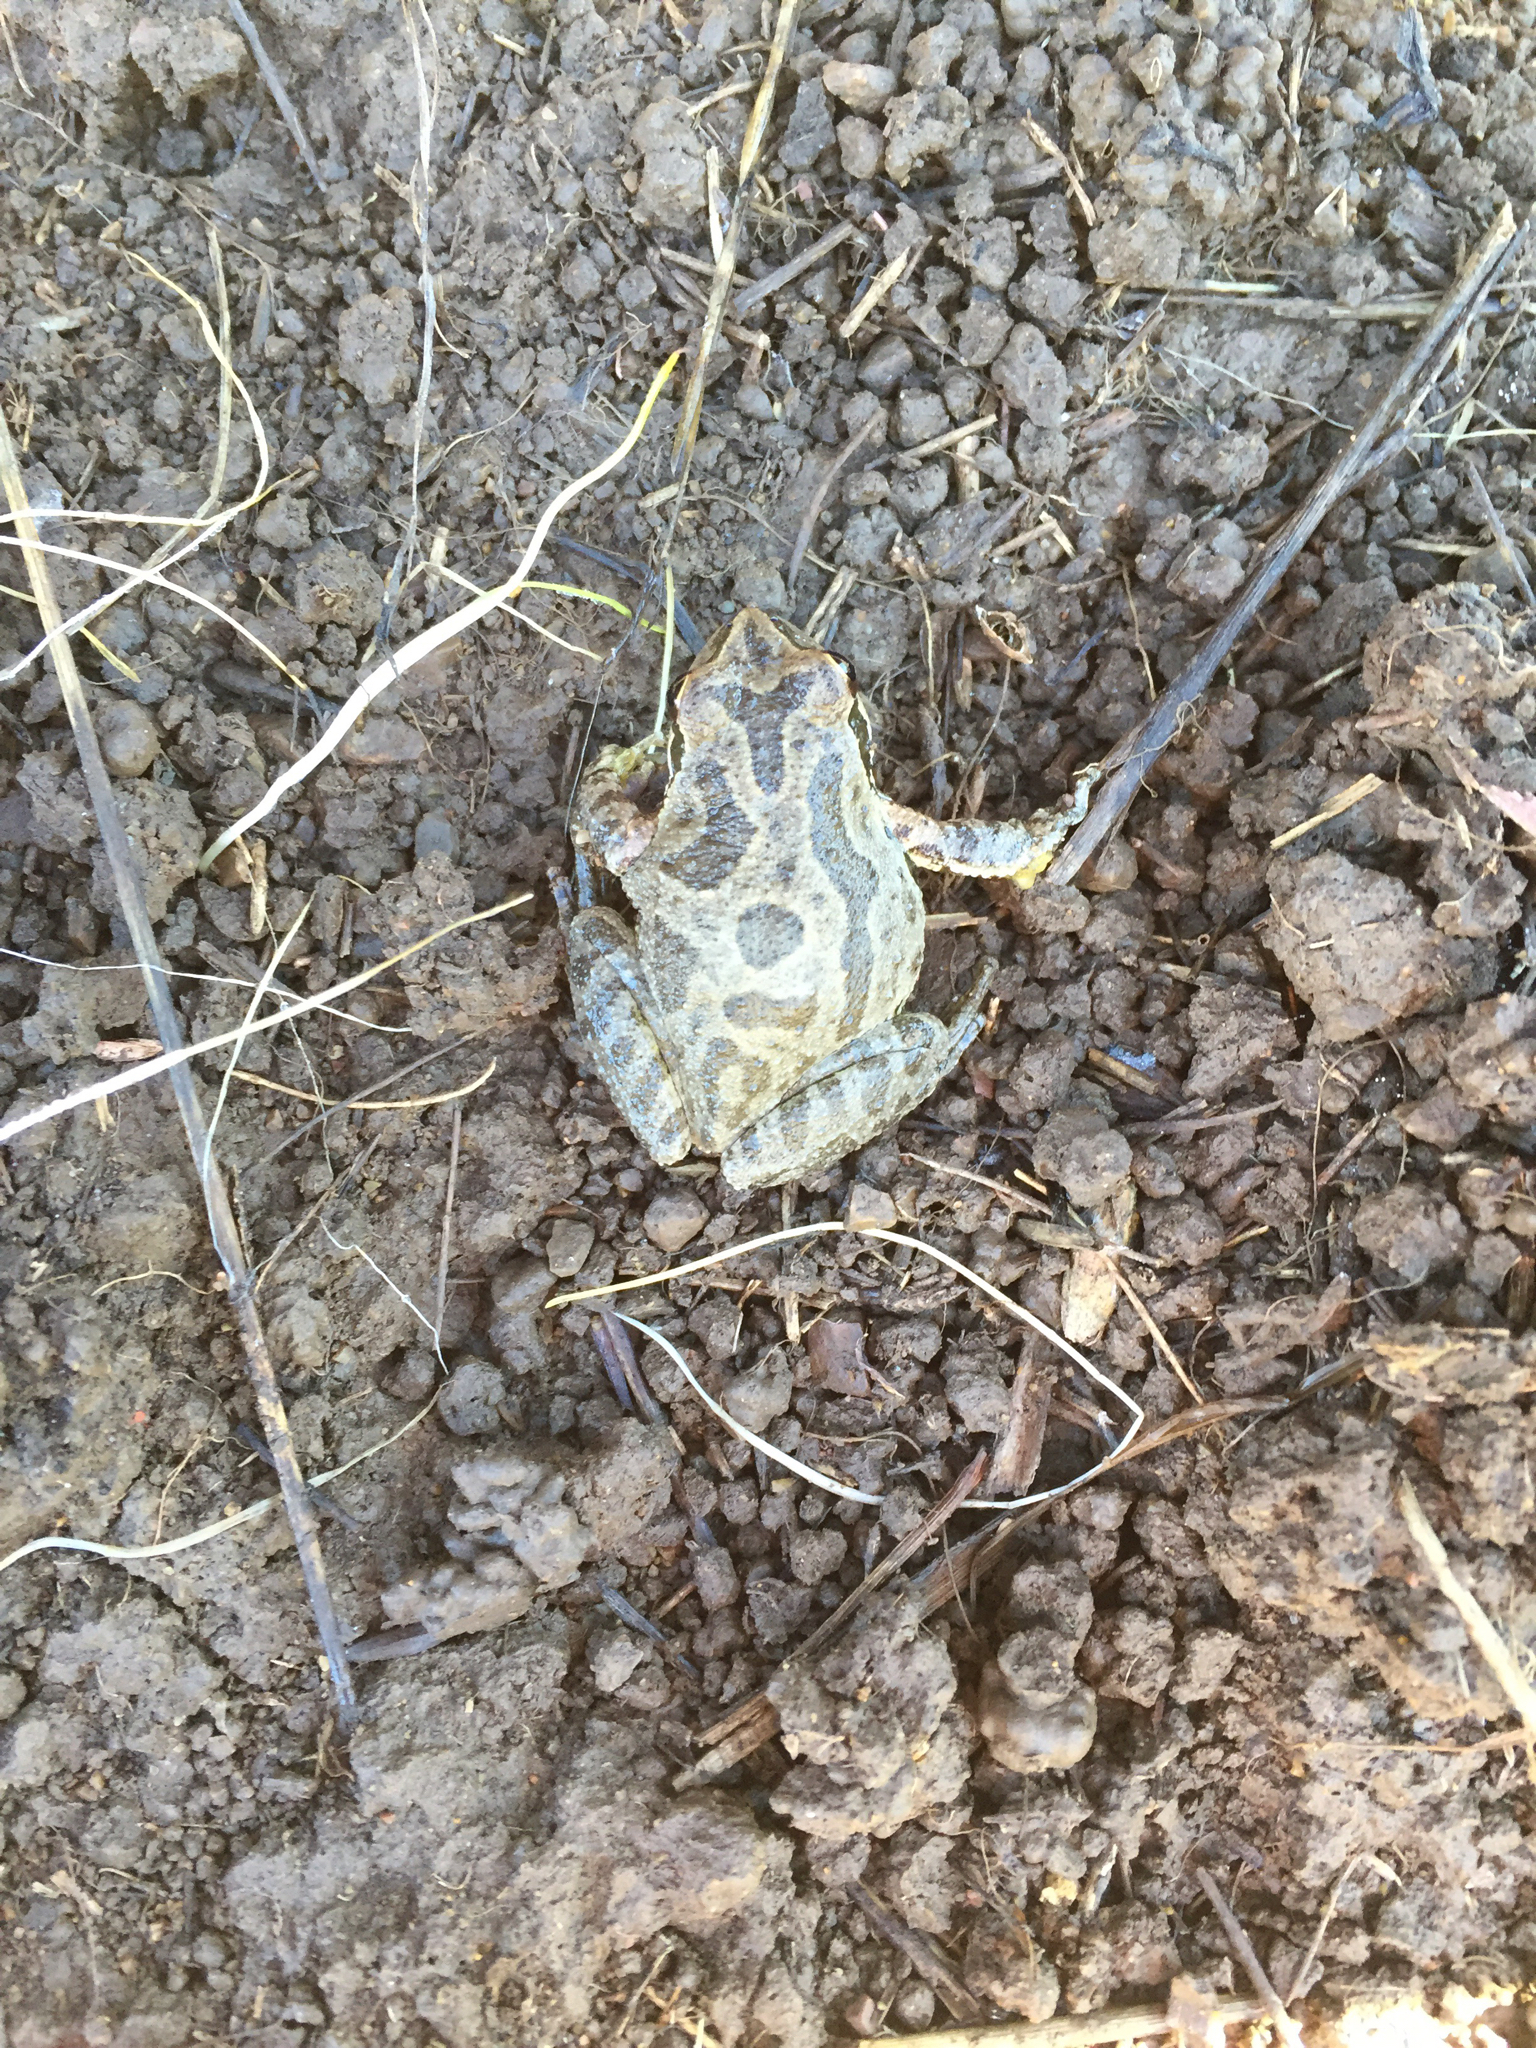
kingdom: Animalia
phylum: Chordata
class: Amphibia
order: Anura
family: Hylidae
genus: Pseudacris
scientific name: Pseudacris regilla
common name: Pacific chorus frog
